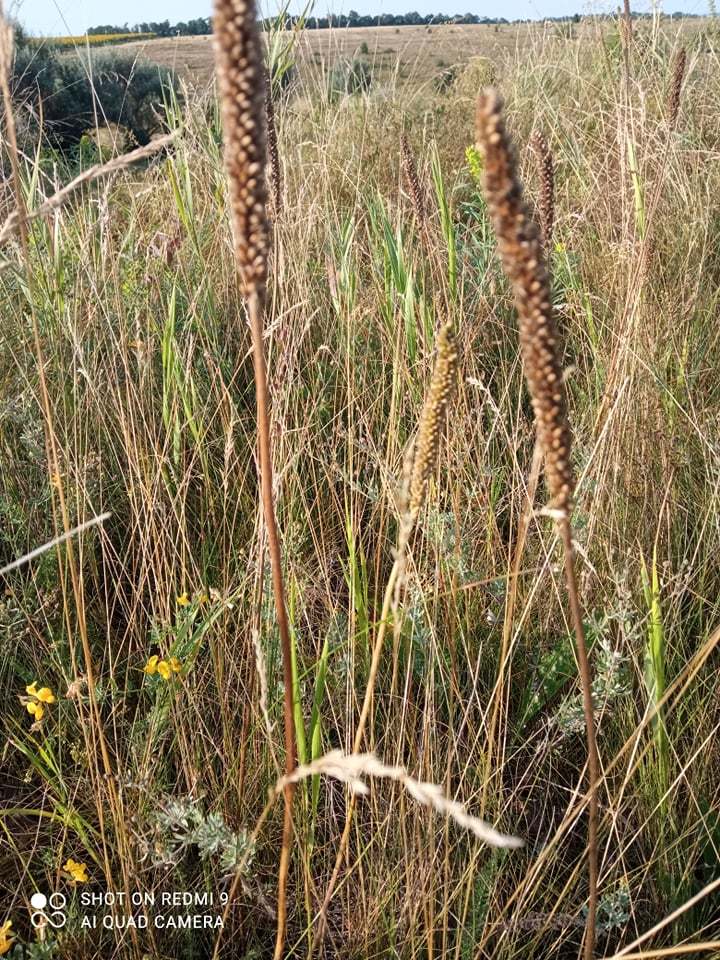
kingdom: Plantae
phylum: Tracheophyta
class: Magnoliopsida
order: Lamiales
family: Plantaginaceae
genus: Plantago
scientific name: Plantago urvillei
